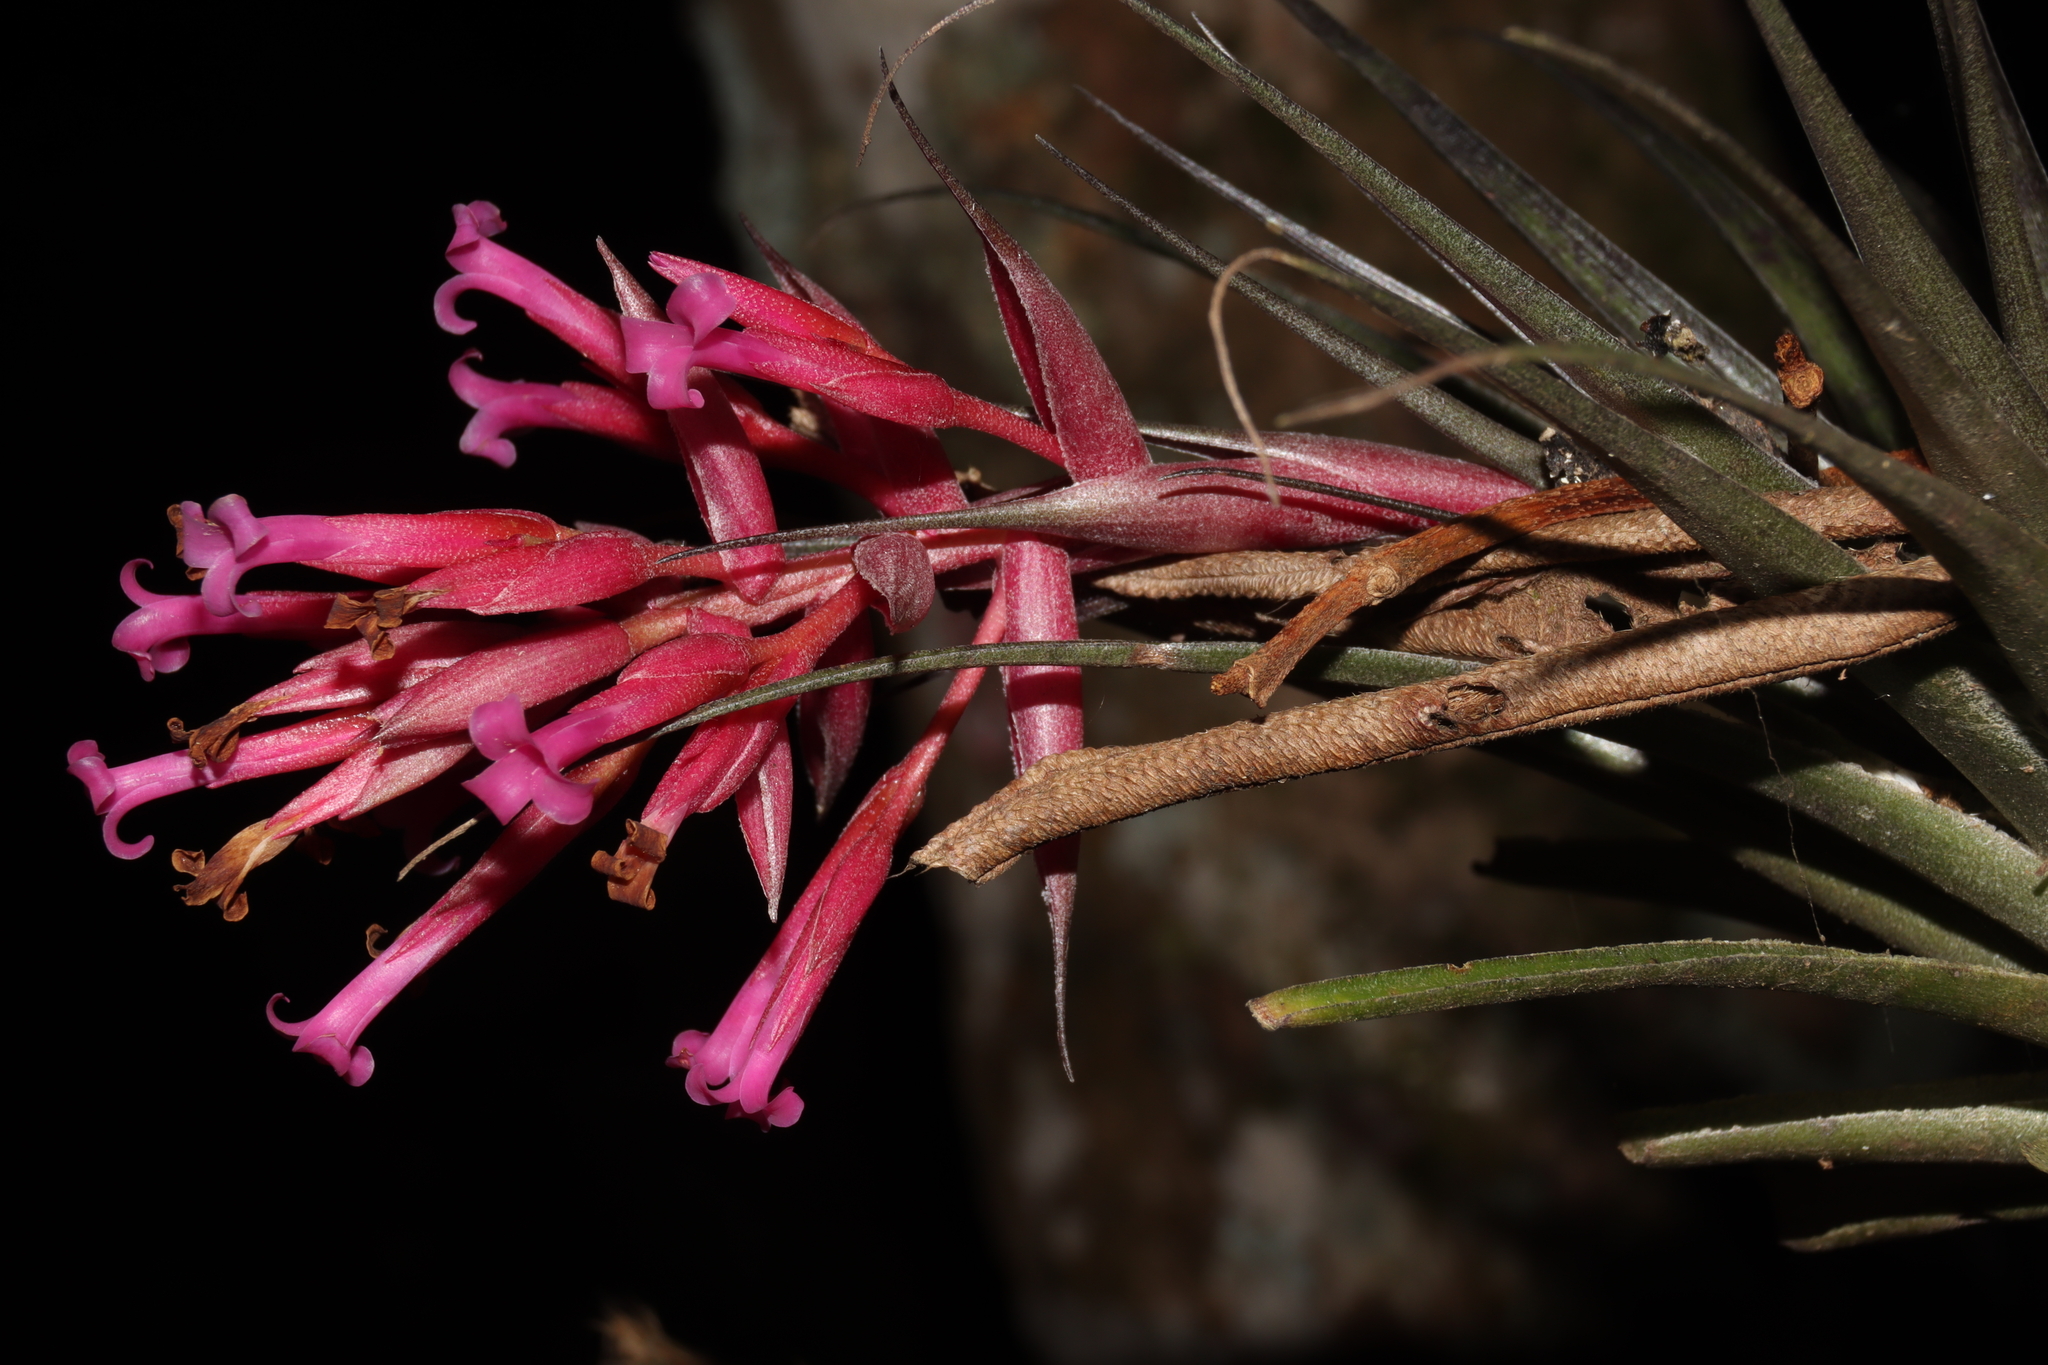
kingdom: Plantae
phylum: Tracheophyta
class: Liliopsida
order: Poales
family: Bromeliaceae
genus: Tillandsia
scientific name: Tillandsia geminiflora
